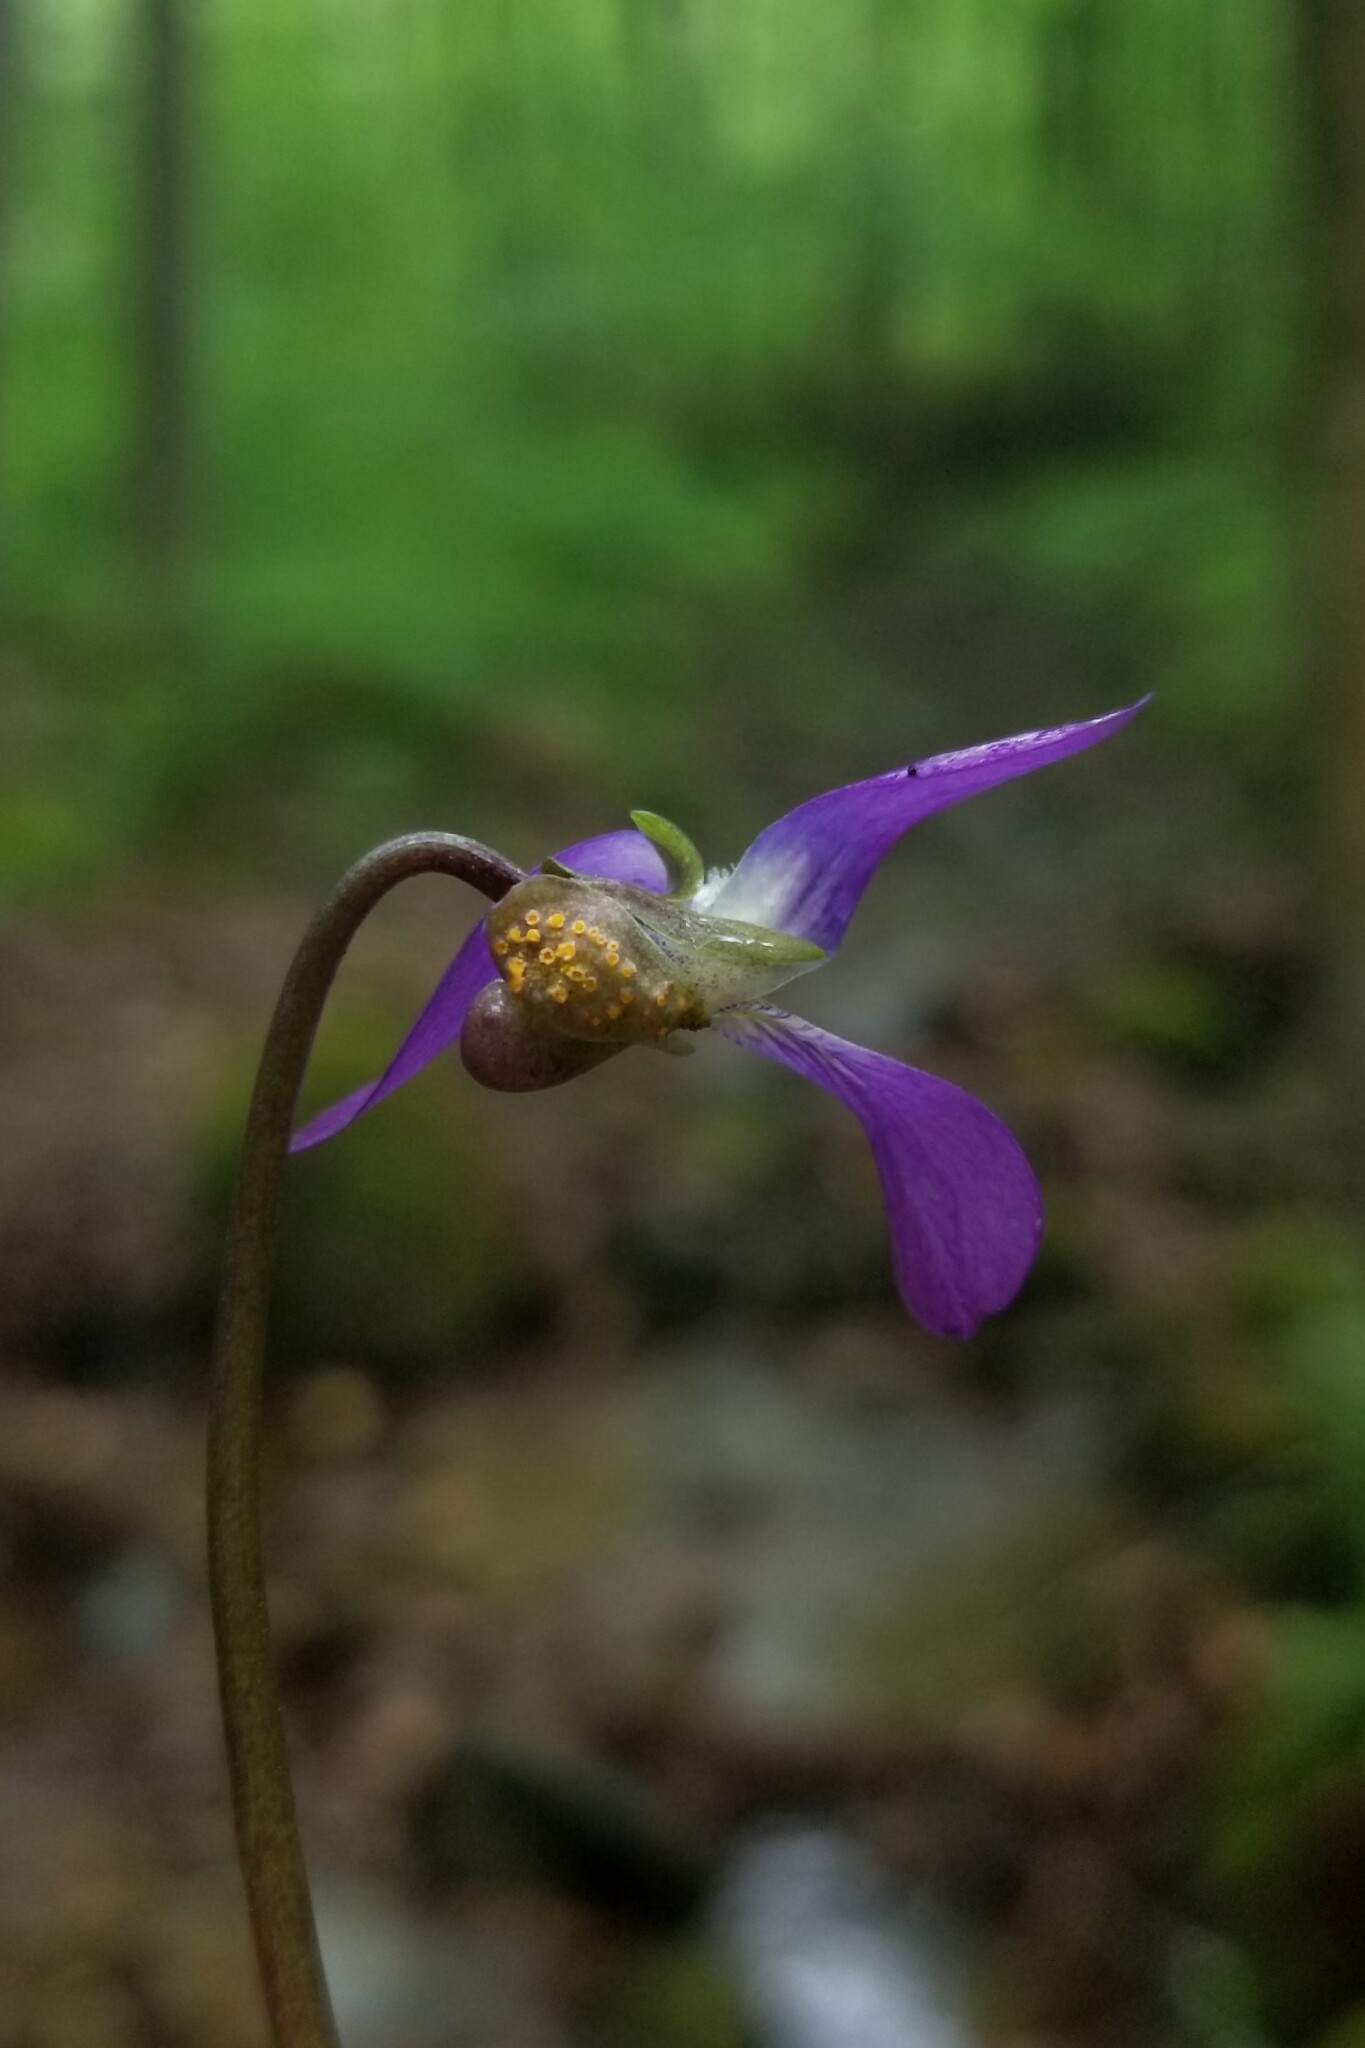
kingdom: Fungi
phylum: Basidiomycota
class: Pucciniomycetes
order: Pucciniales
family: Pucciniaceae
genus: Puccinia
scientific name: Puccinia violae
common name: Violet rust
